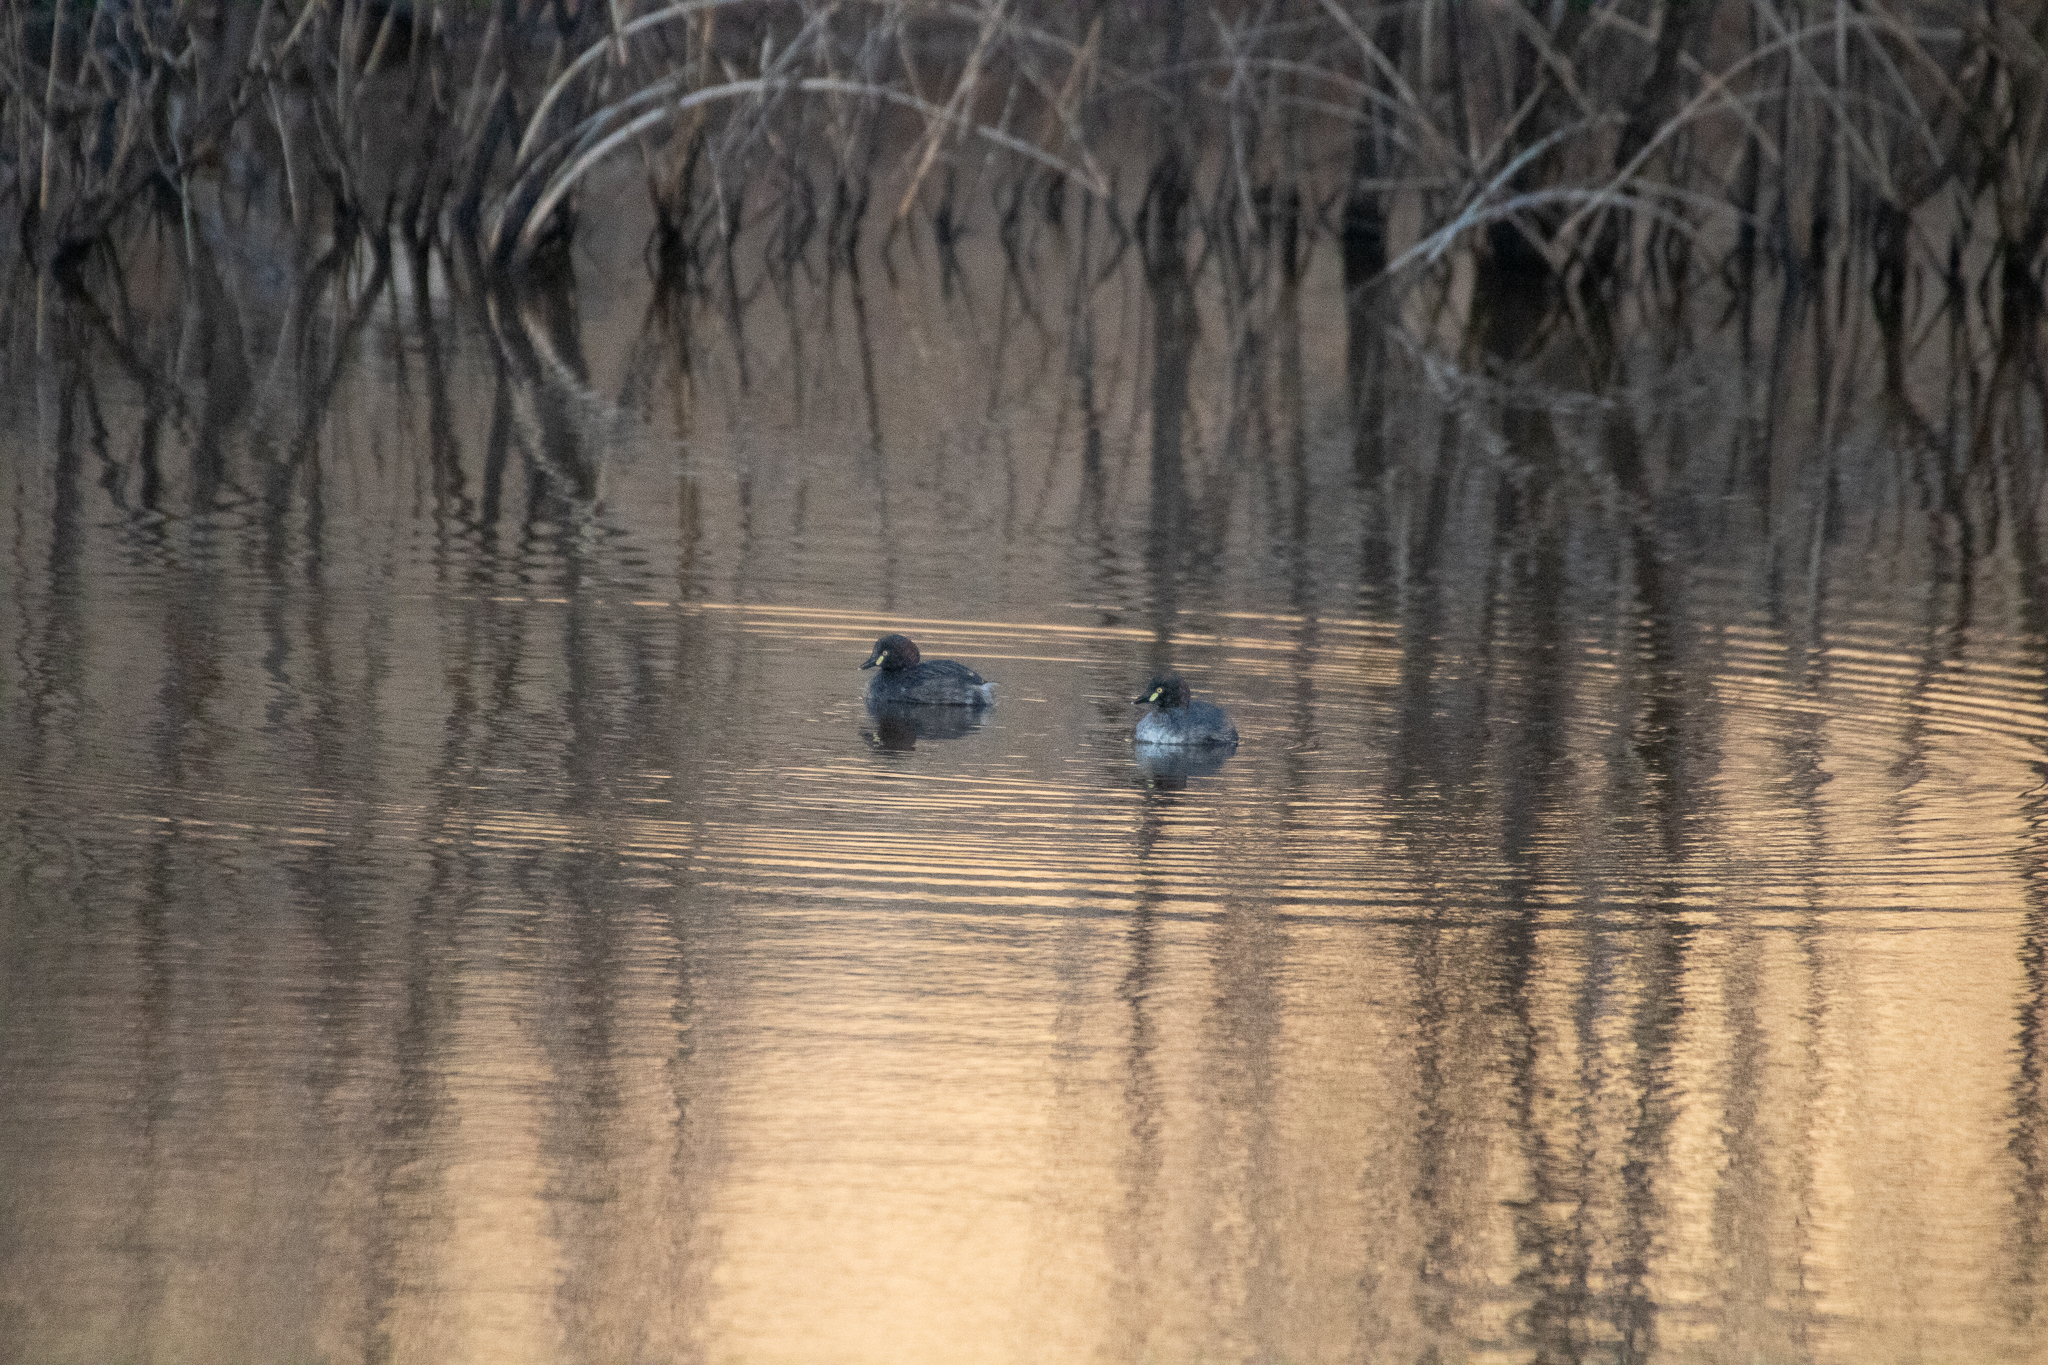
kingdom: Animalia
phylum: Chordata
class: Aves
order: Podicipediformes
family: Podicipedidae
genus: Tachybaptus
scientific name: Tachybaptus novaehollandiae
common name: Australasian grebe
